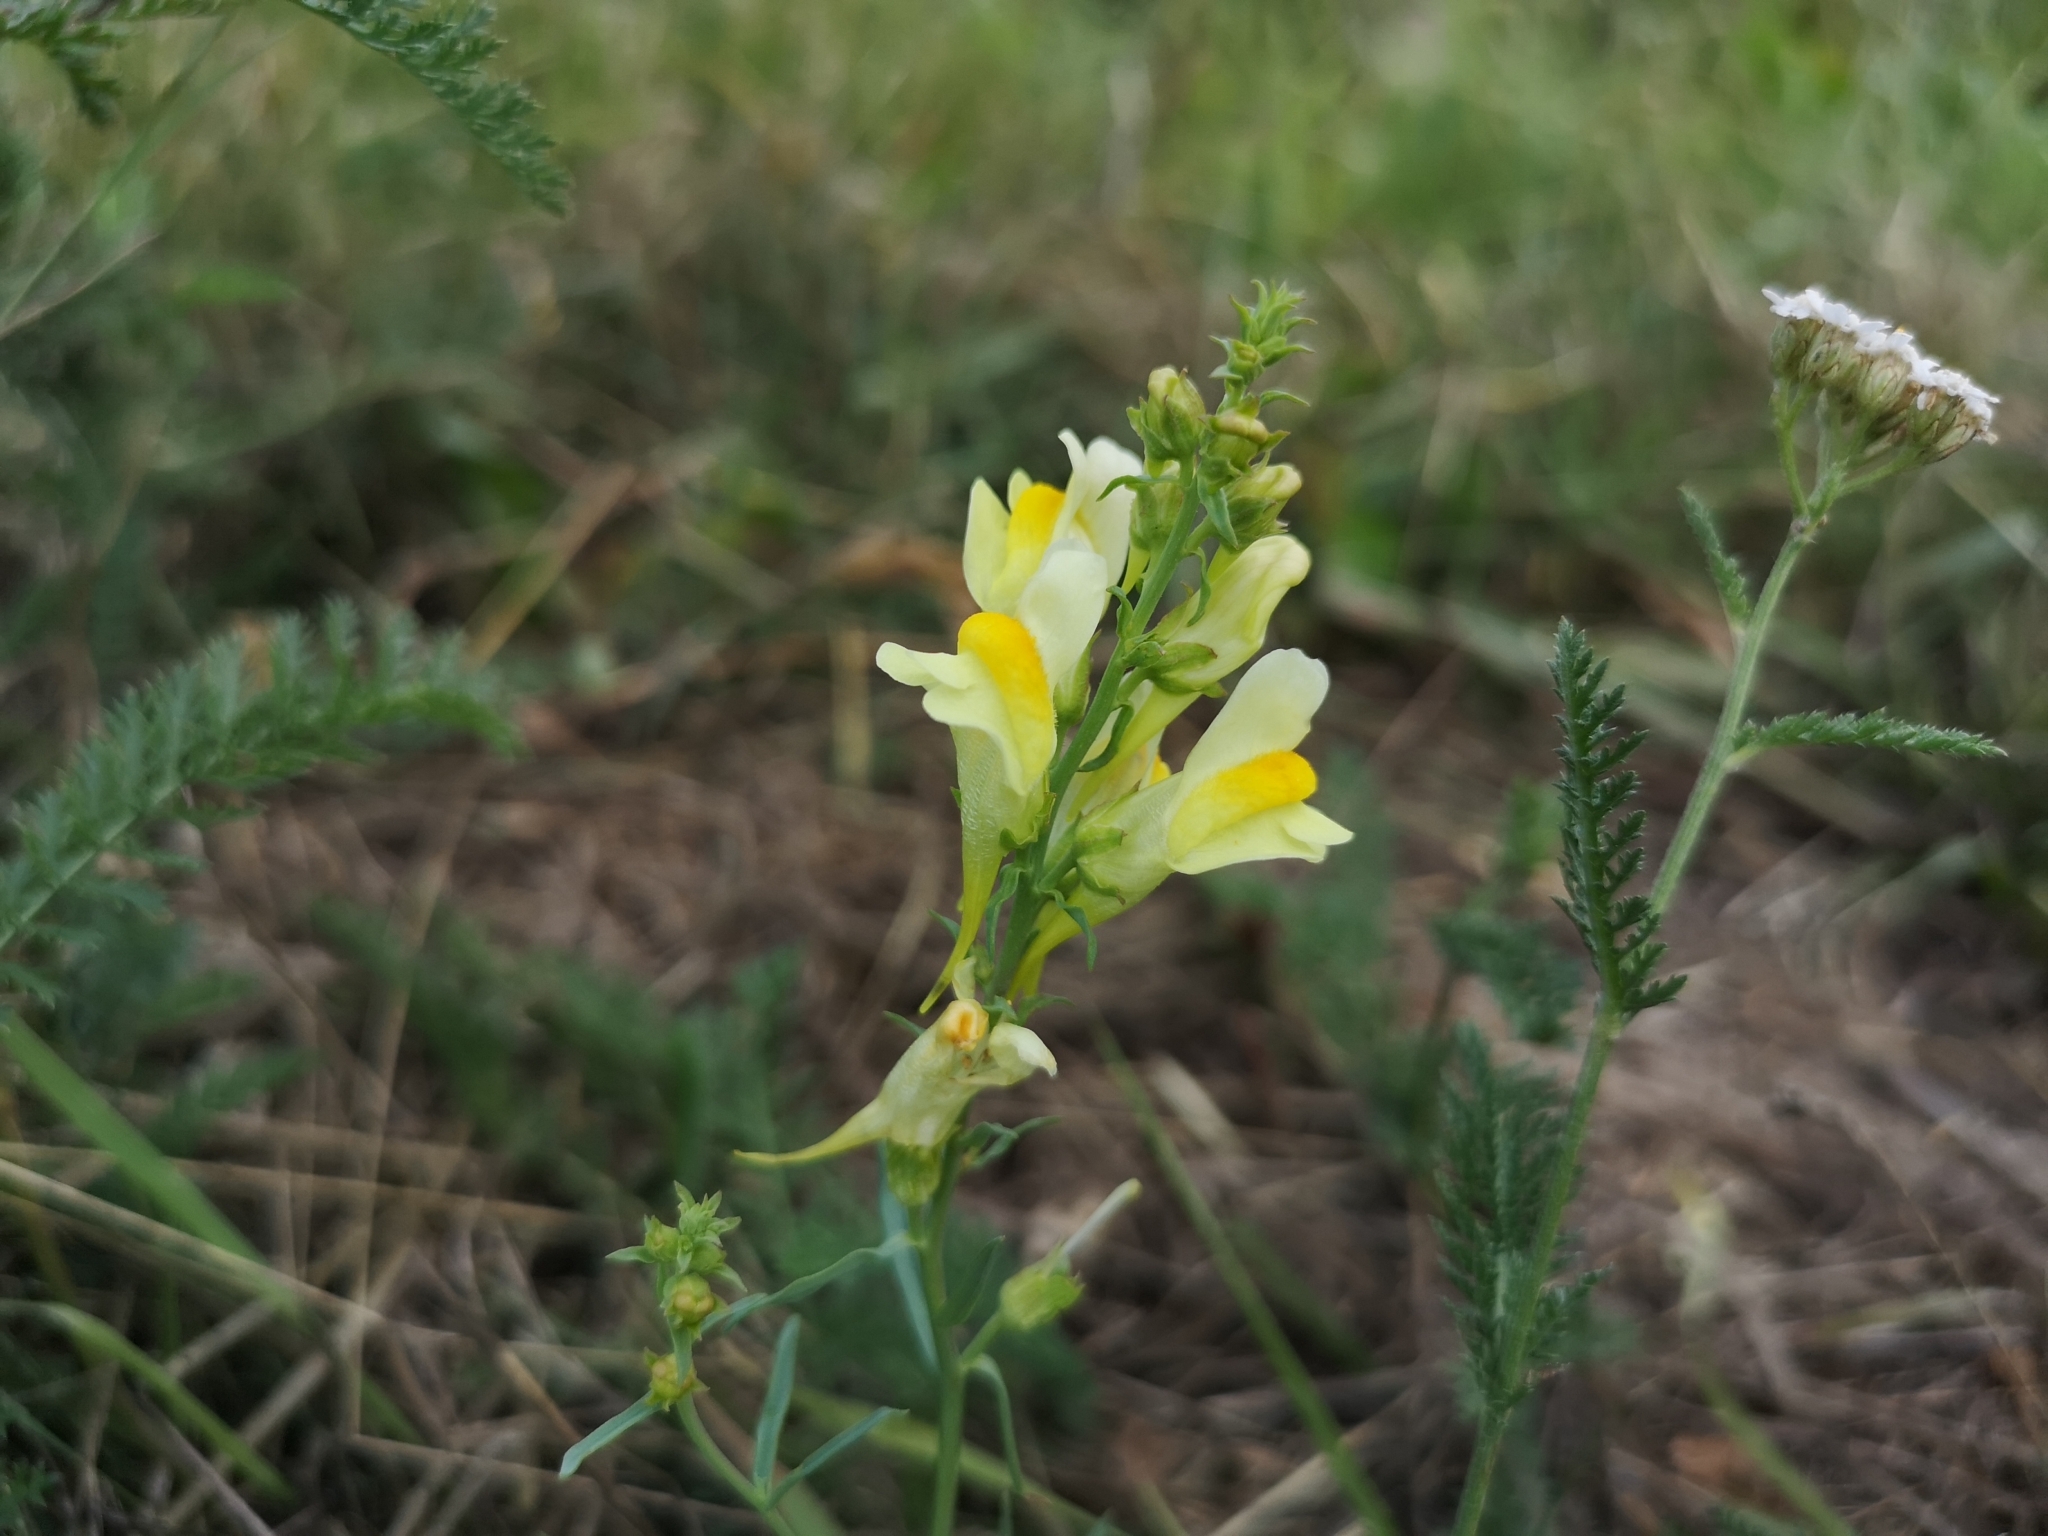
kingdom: Plantae
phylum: Tracheophyta
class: Magnoliopsida
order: Lamiales
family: Plantaginaceae
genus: Linaria
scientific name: Linaria vulgaris
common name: Butter and eggs
